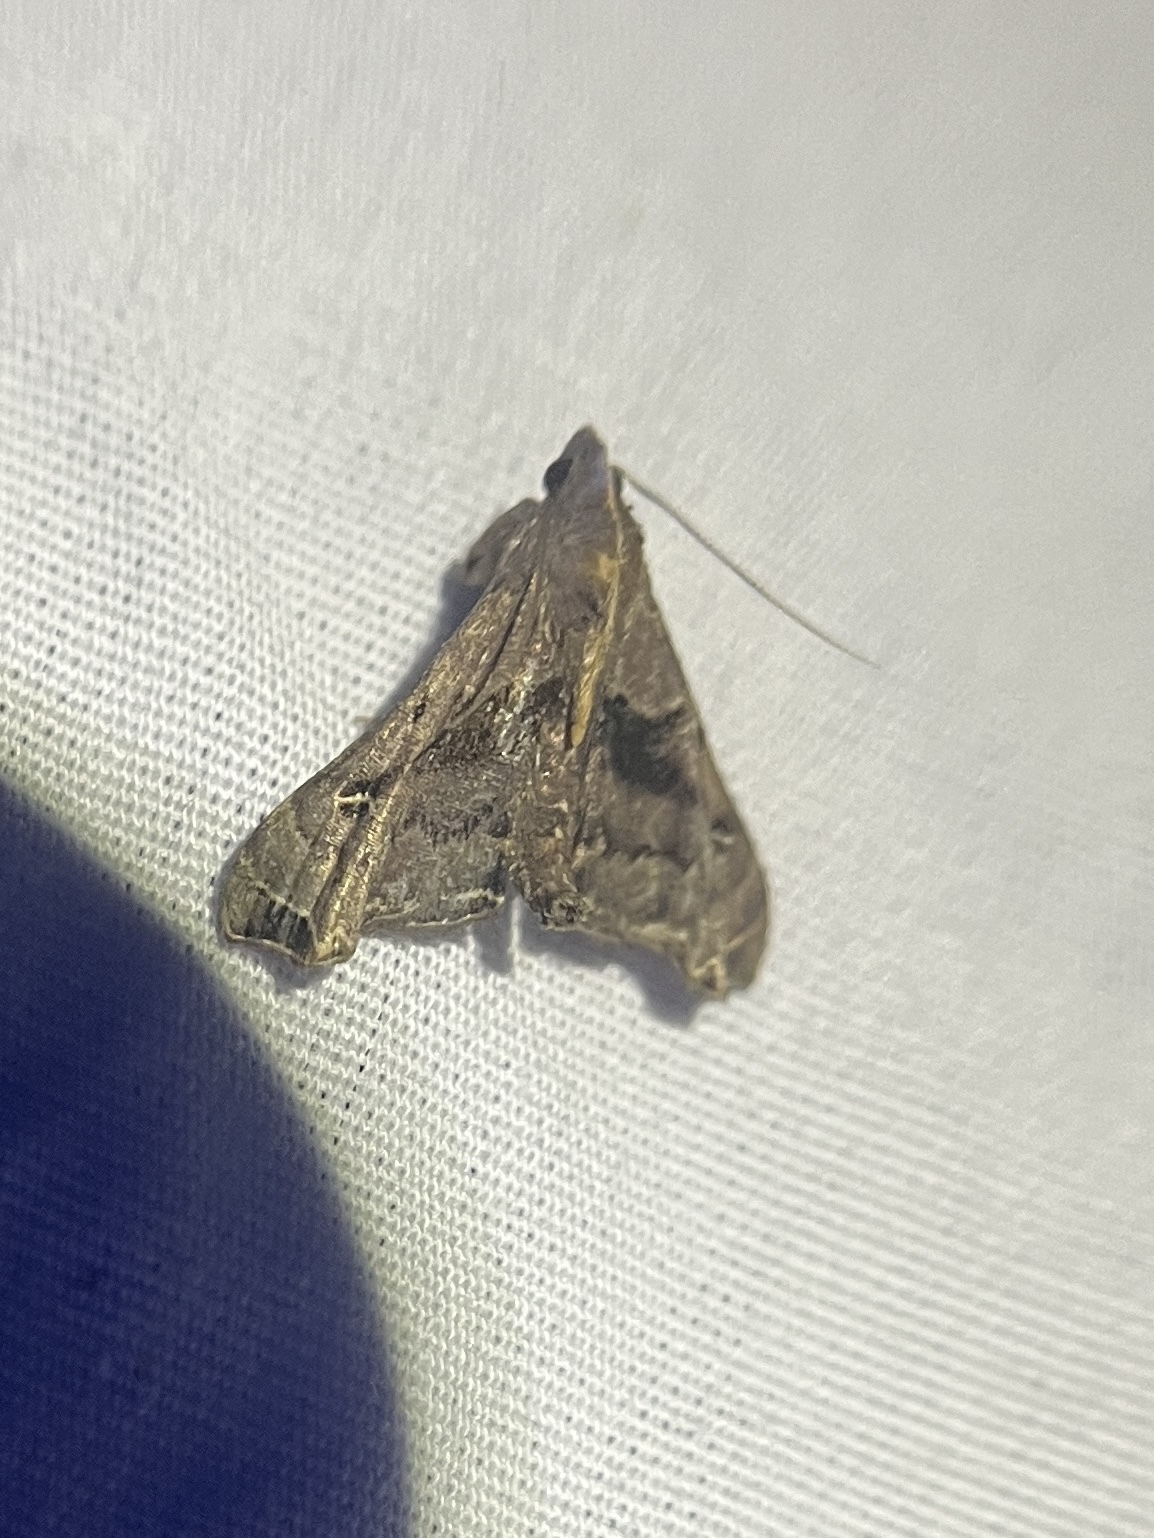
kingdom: Animalia
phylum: Arthropoda
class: Insecta
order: Lepidoptera
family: Erebidae
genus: Palthis
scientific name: Palthis asopialis
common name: Faint-spotted palthis moth
